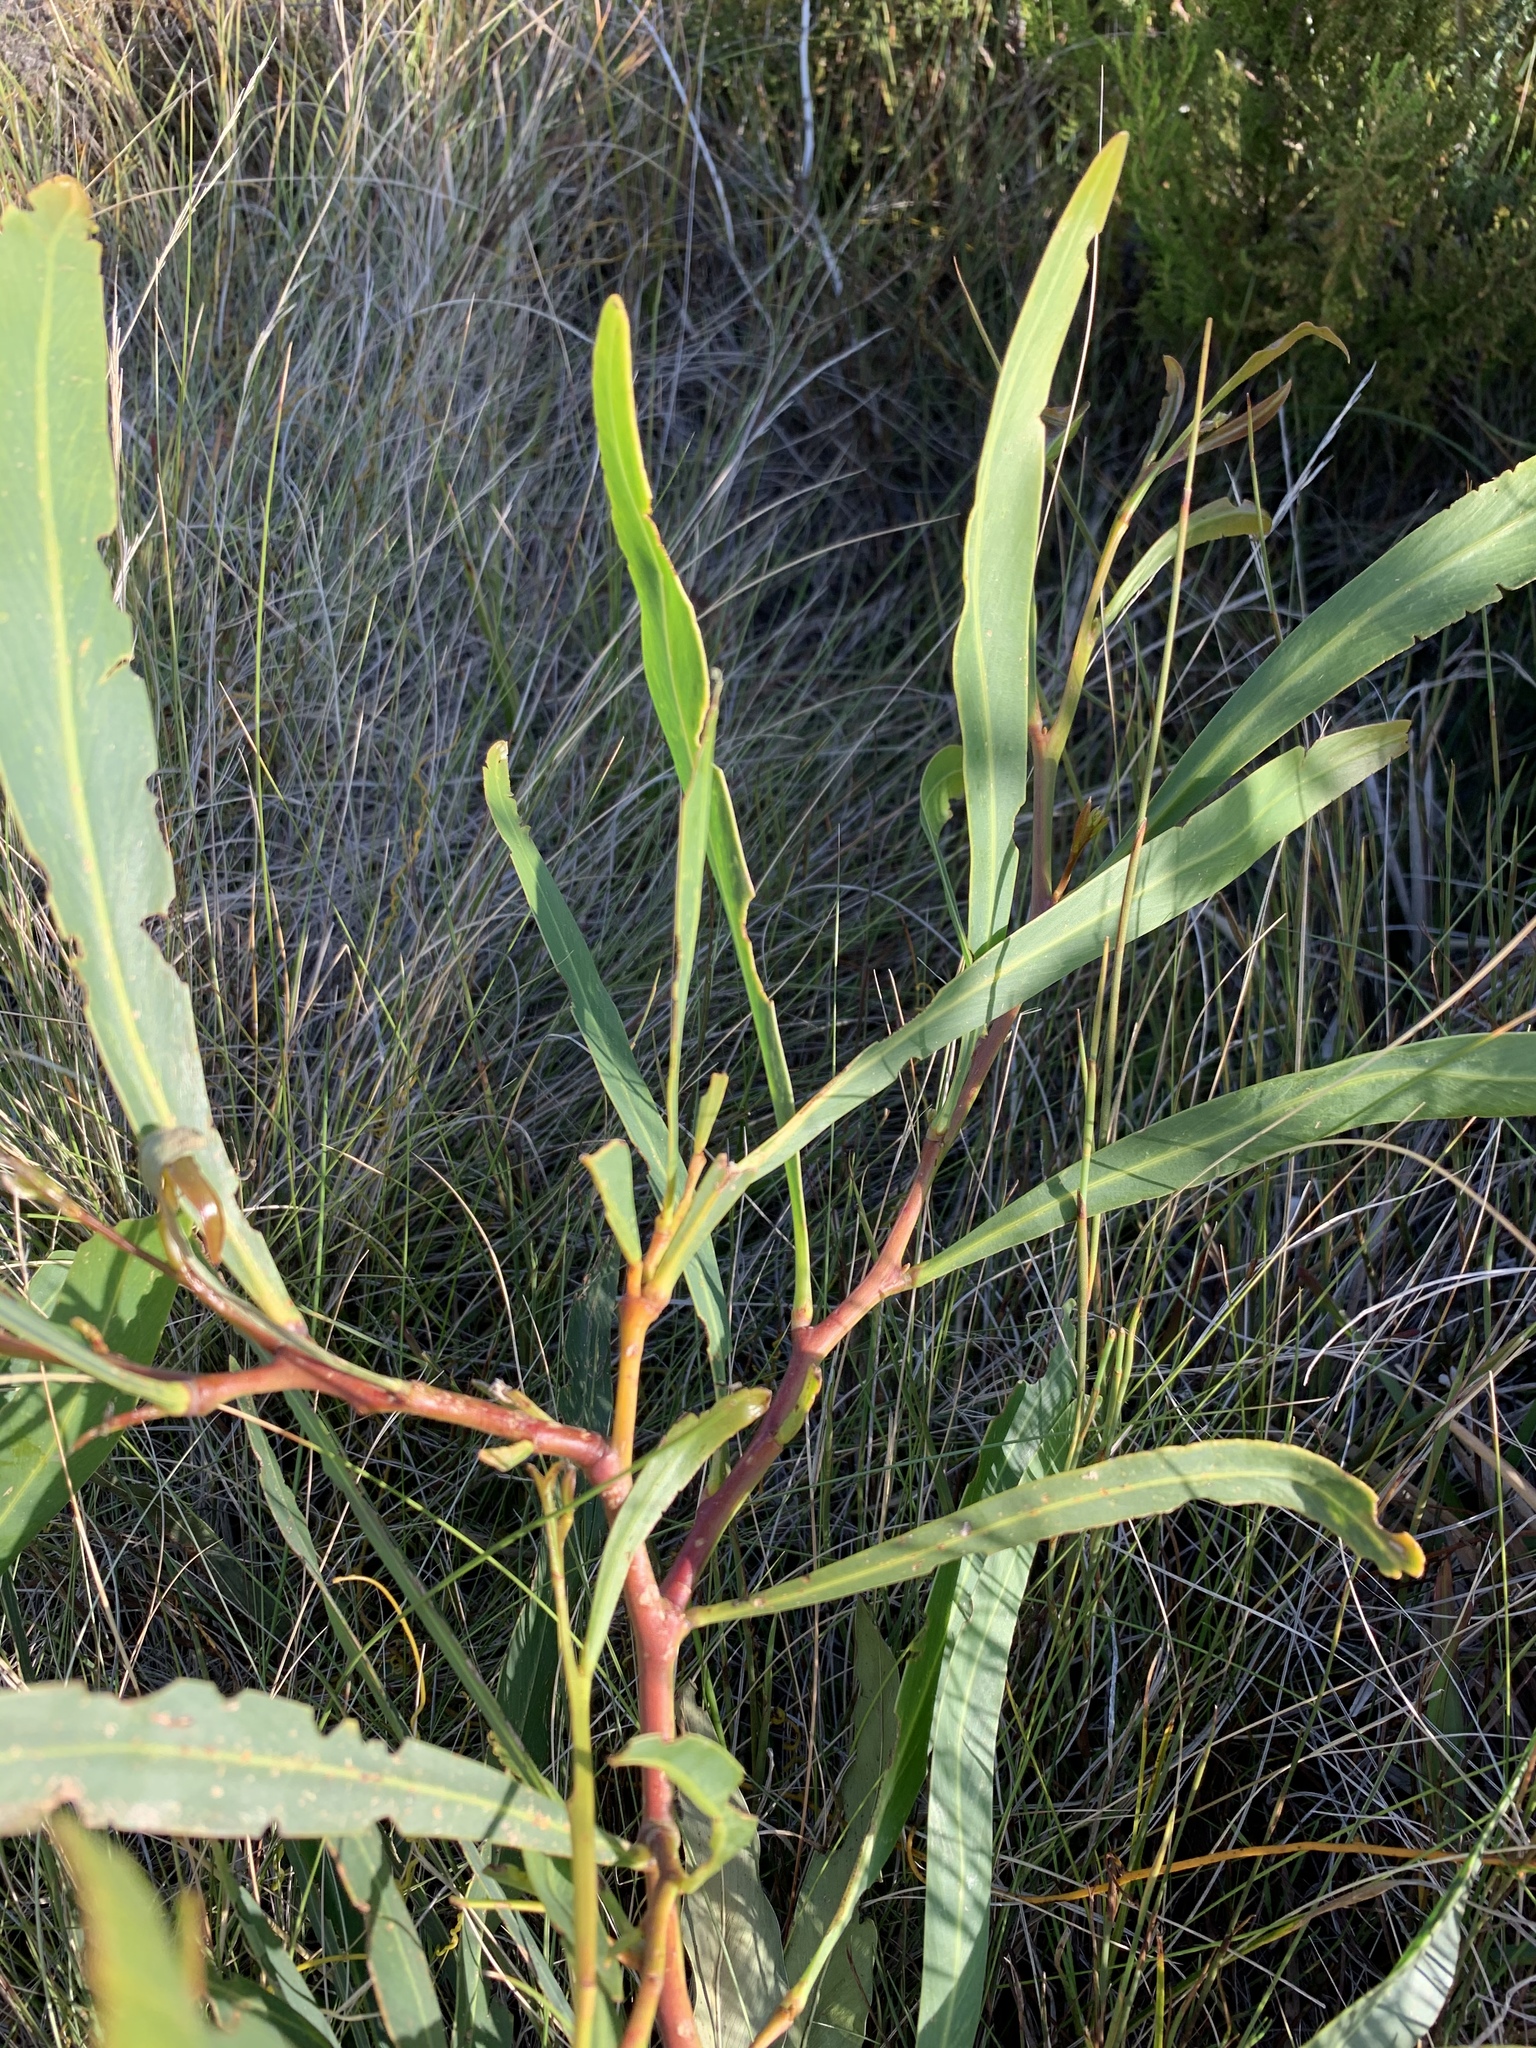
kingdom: Plantae
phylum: Tracheophyta
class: Magnoliopsida
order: Fabales
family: Fabaceae
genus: Acacia
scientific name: Acacia saligna
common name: Orange wattle
